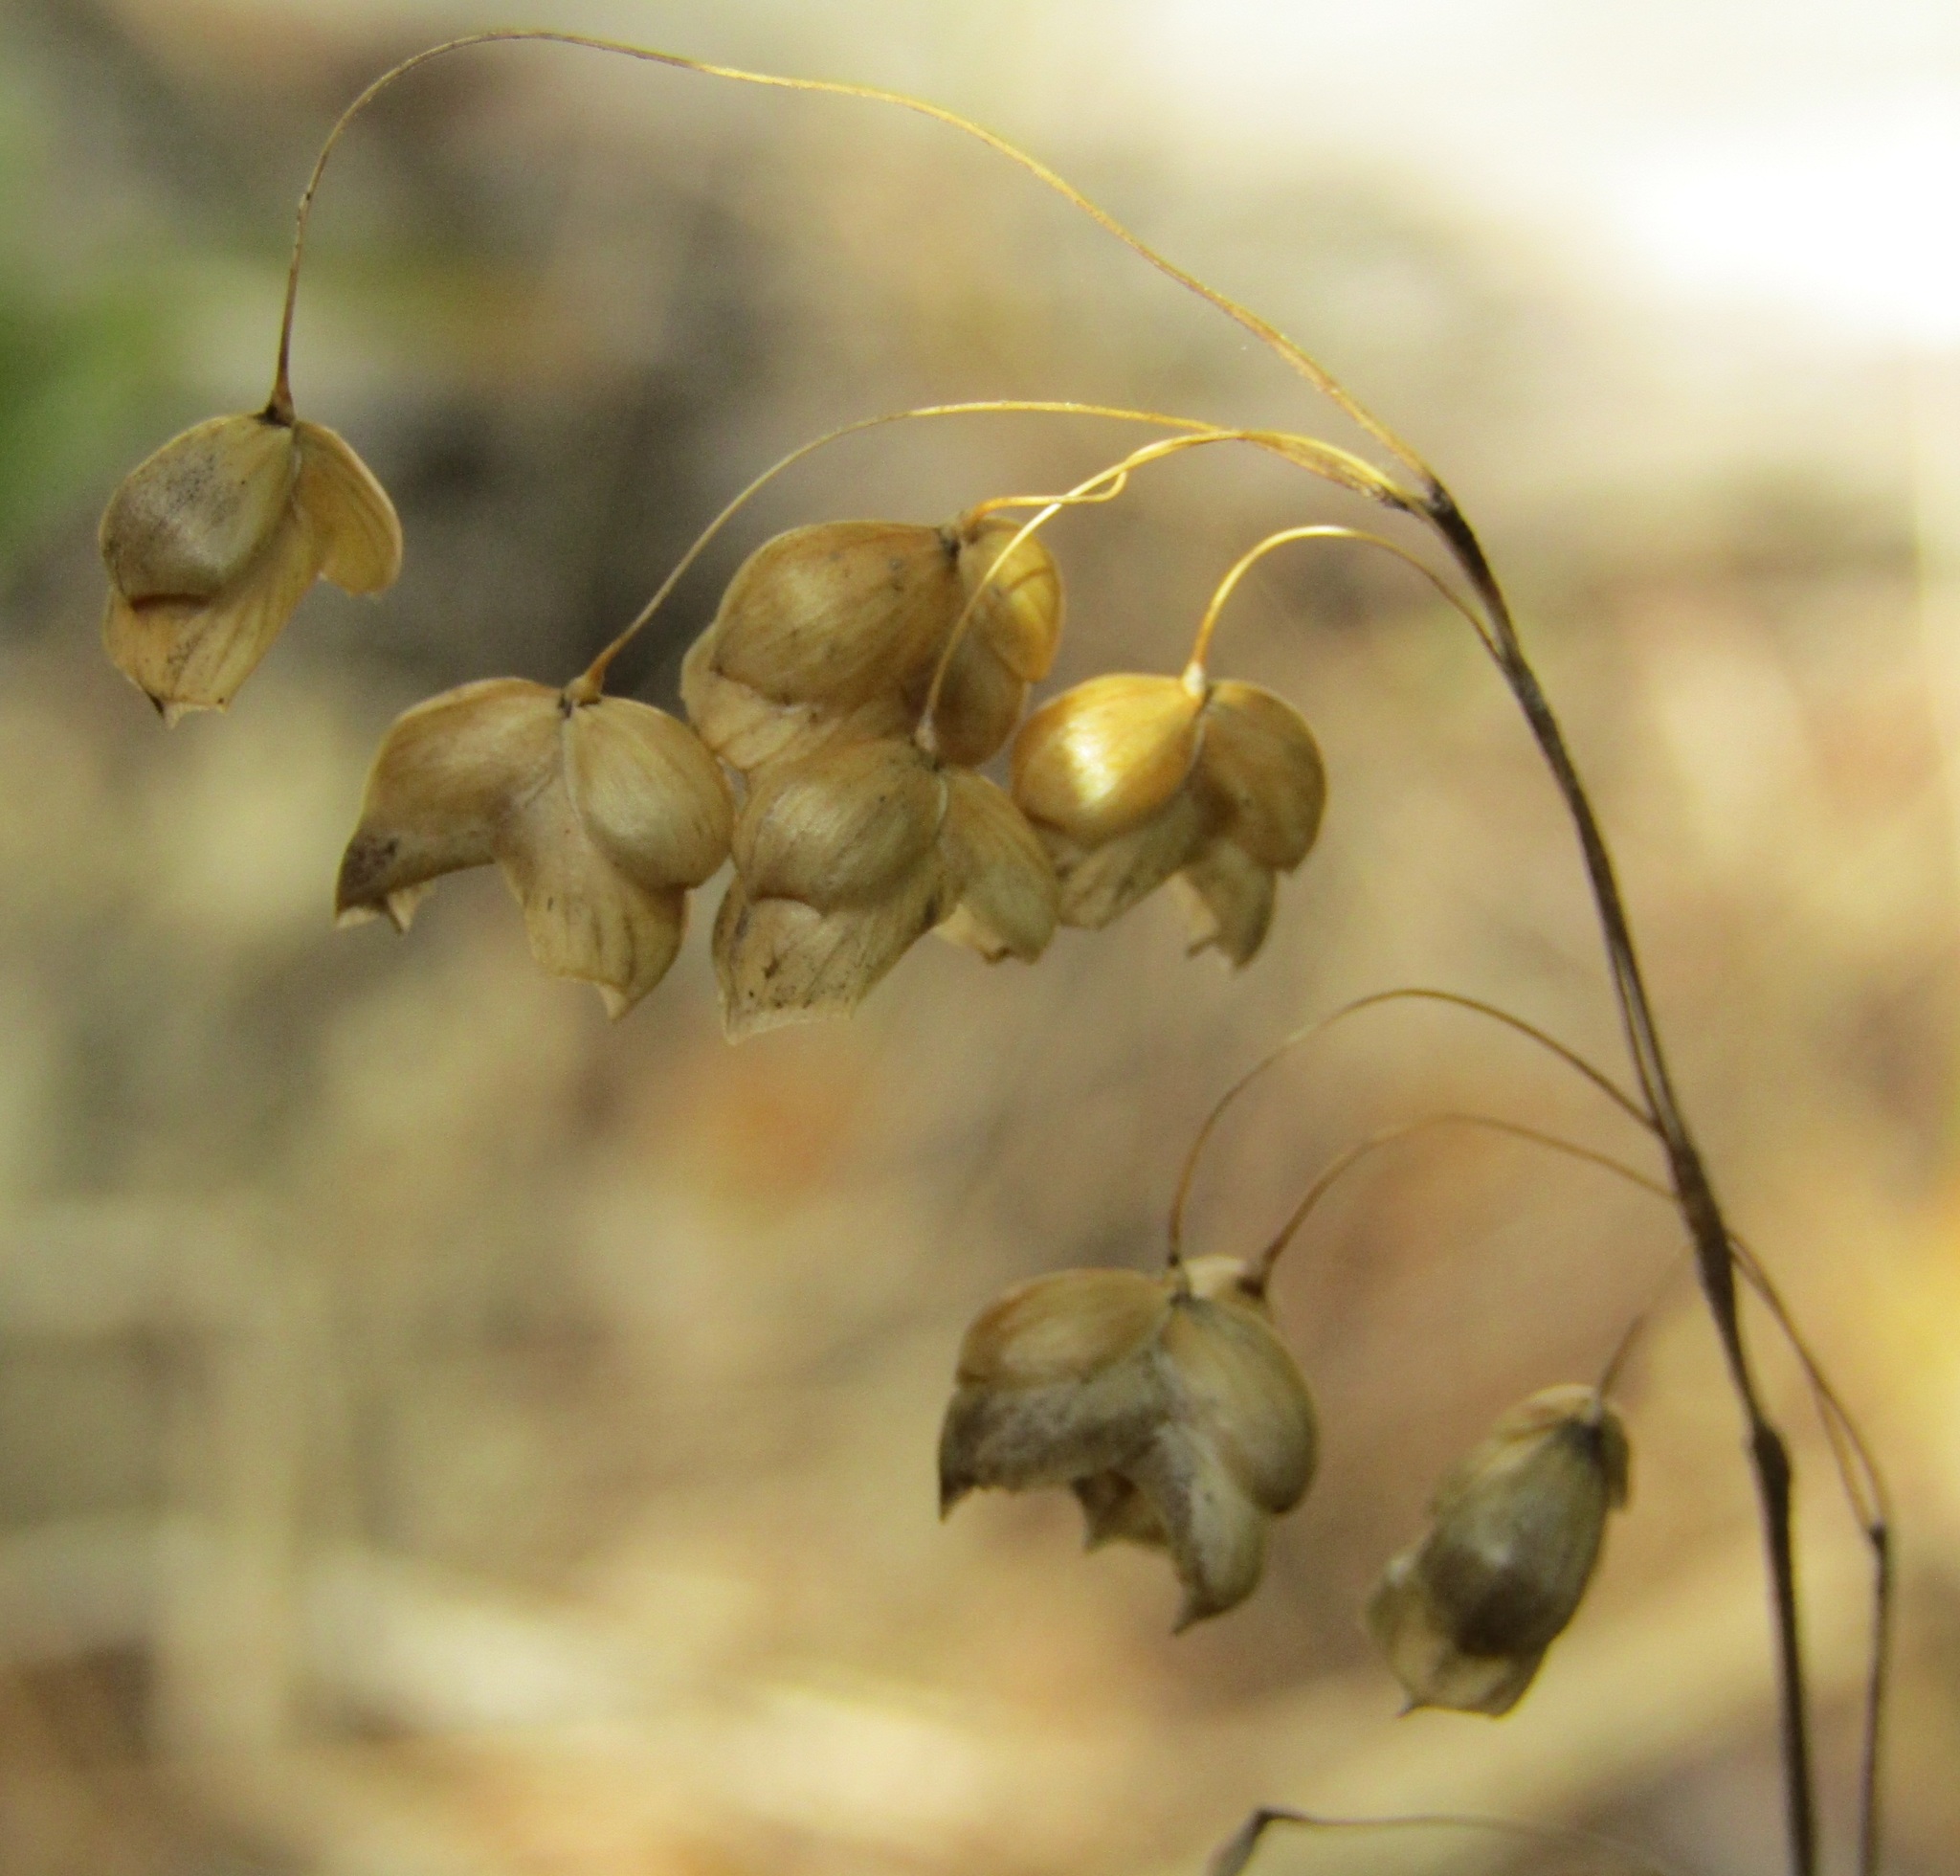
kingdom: Plantae
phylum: Tracheophyta
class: Liliopsida
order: Poales
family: Poaceae
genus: Briza
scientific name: Briza maxima
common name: Big quakinggrass
